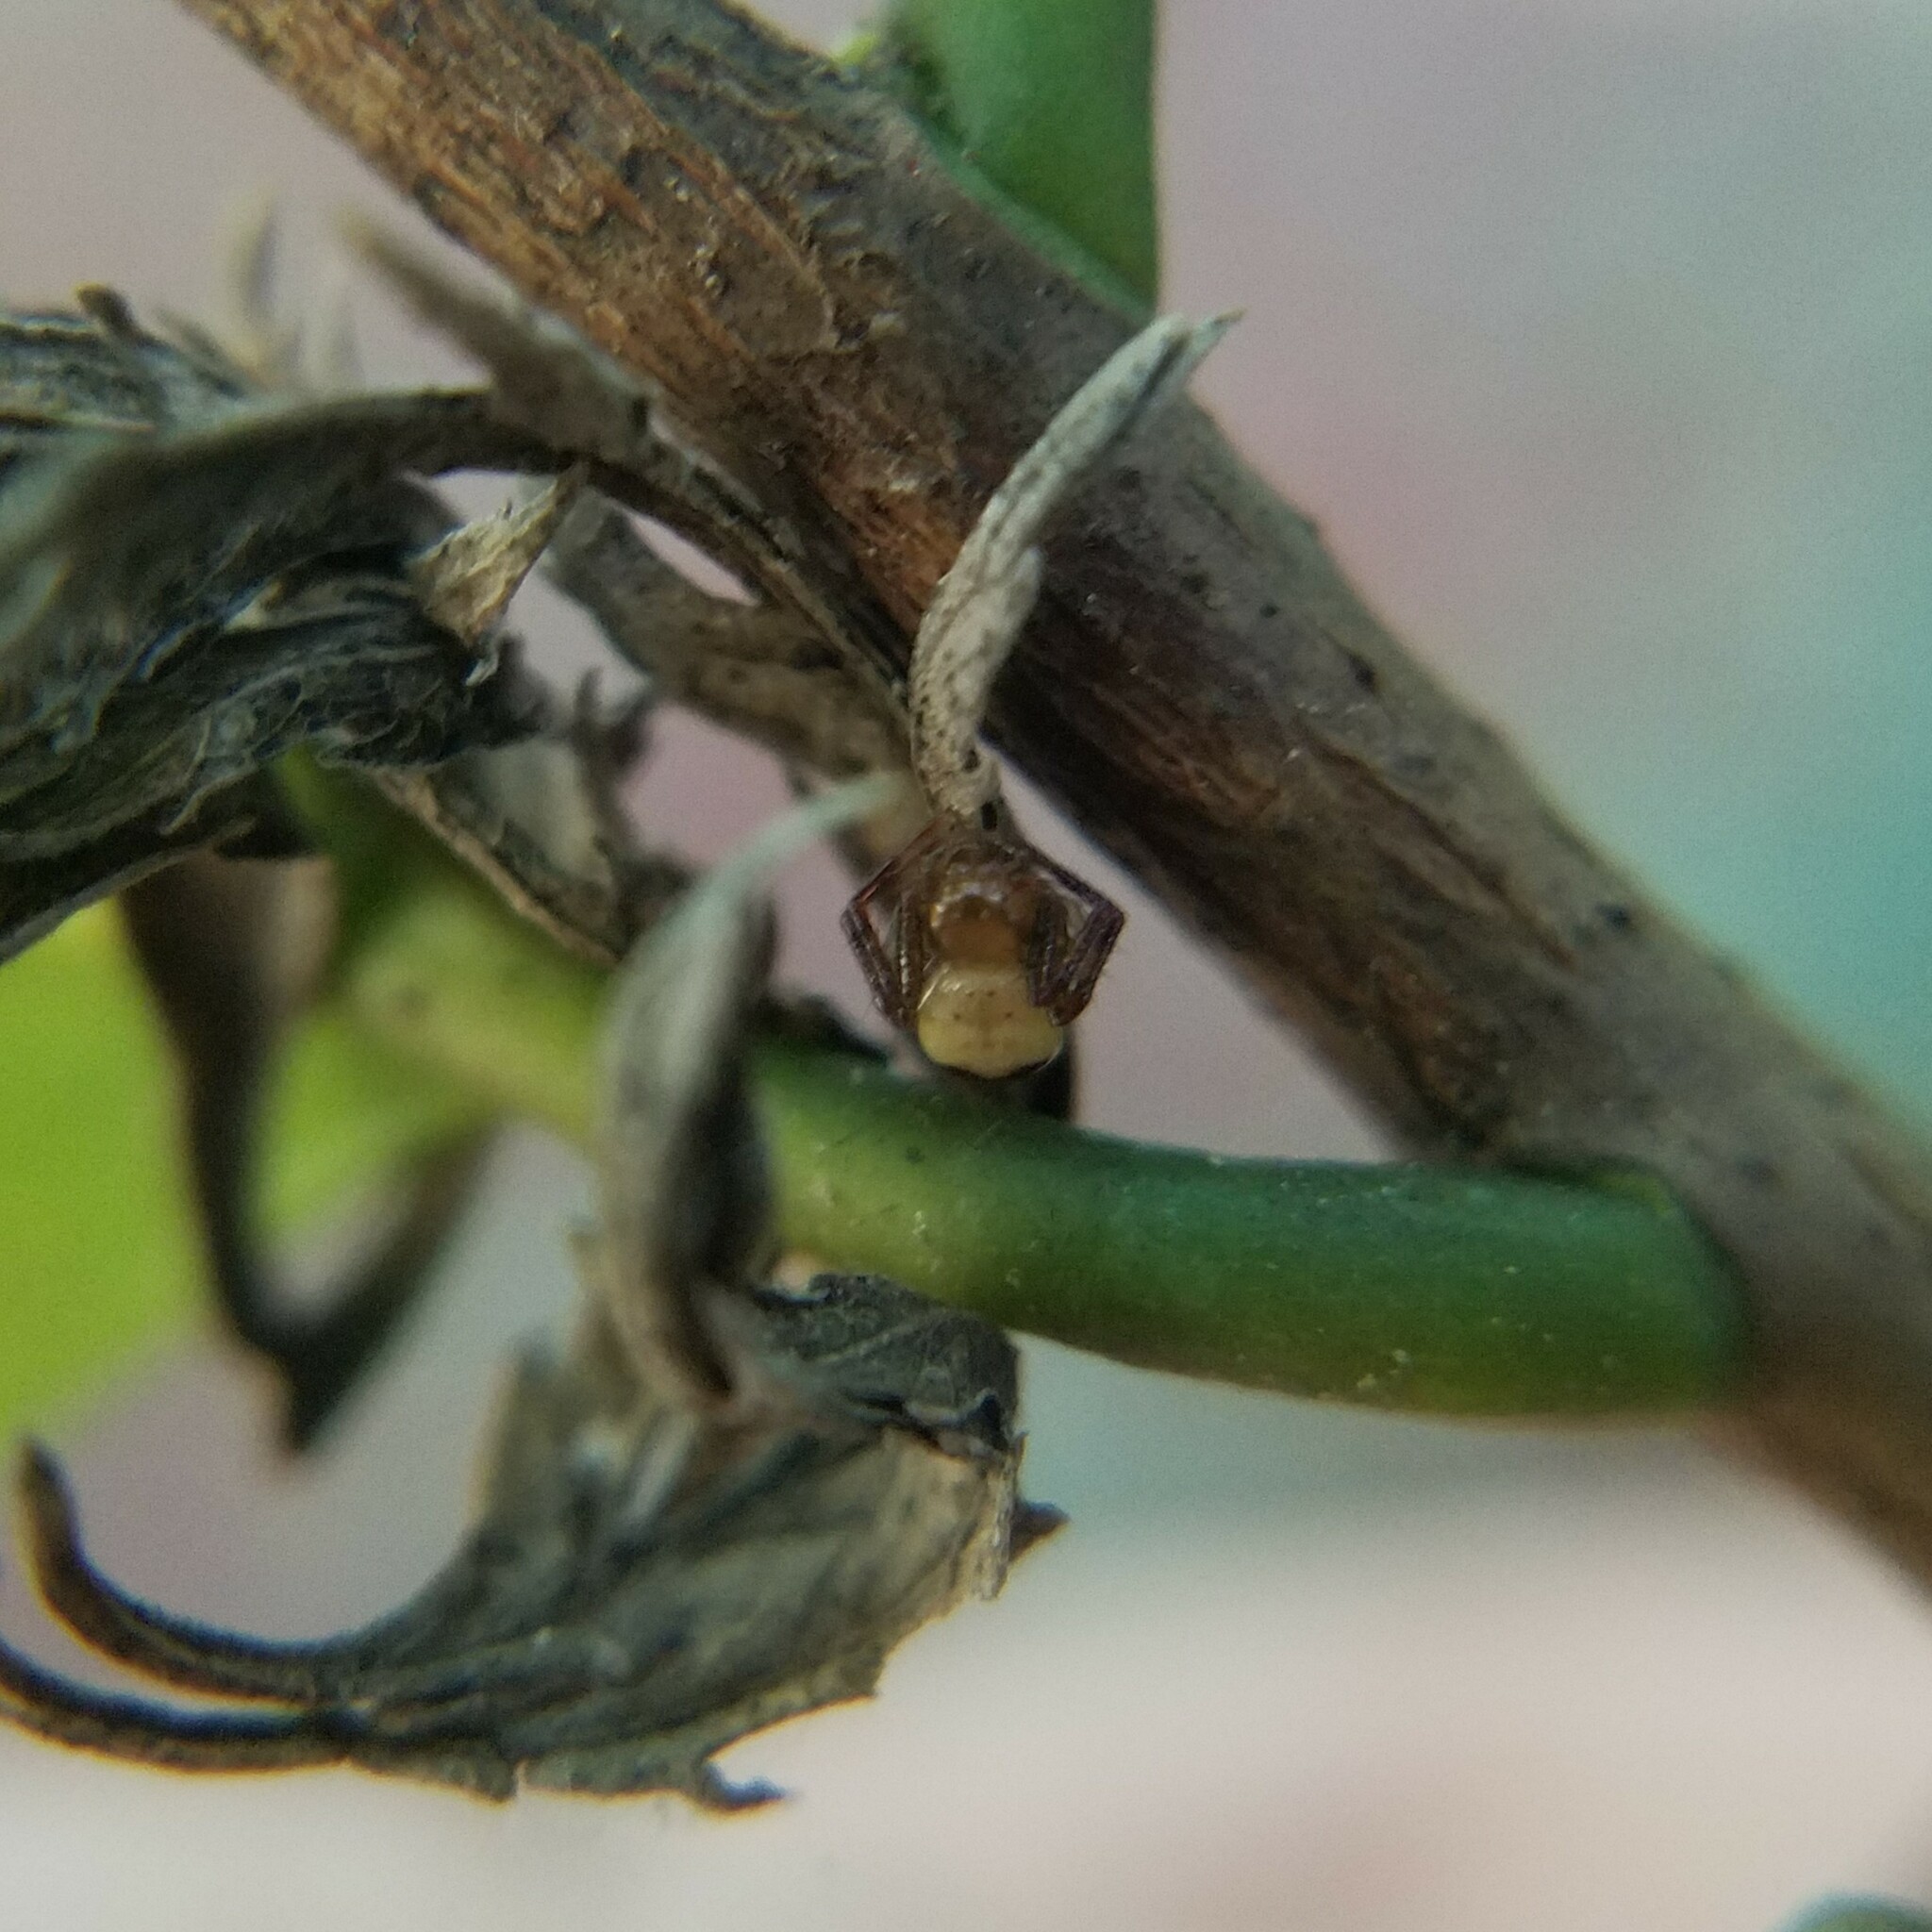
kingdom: Animalia
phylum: Arthropoda
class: Arachnida
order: Araneae
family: Thomisidae
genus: Synema
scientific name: Synema parvulum
